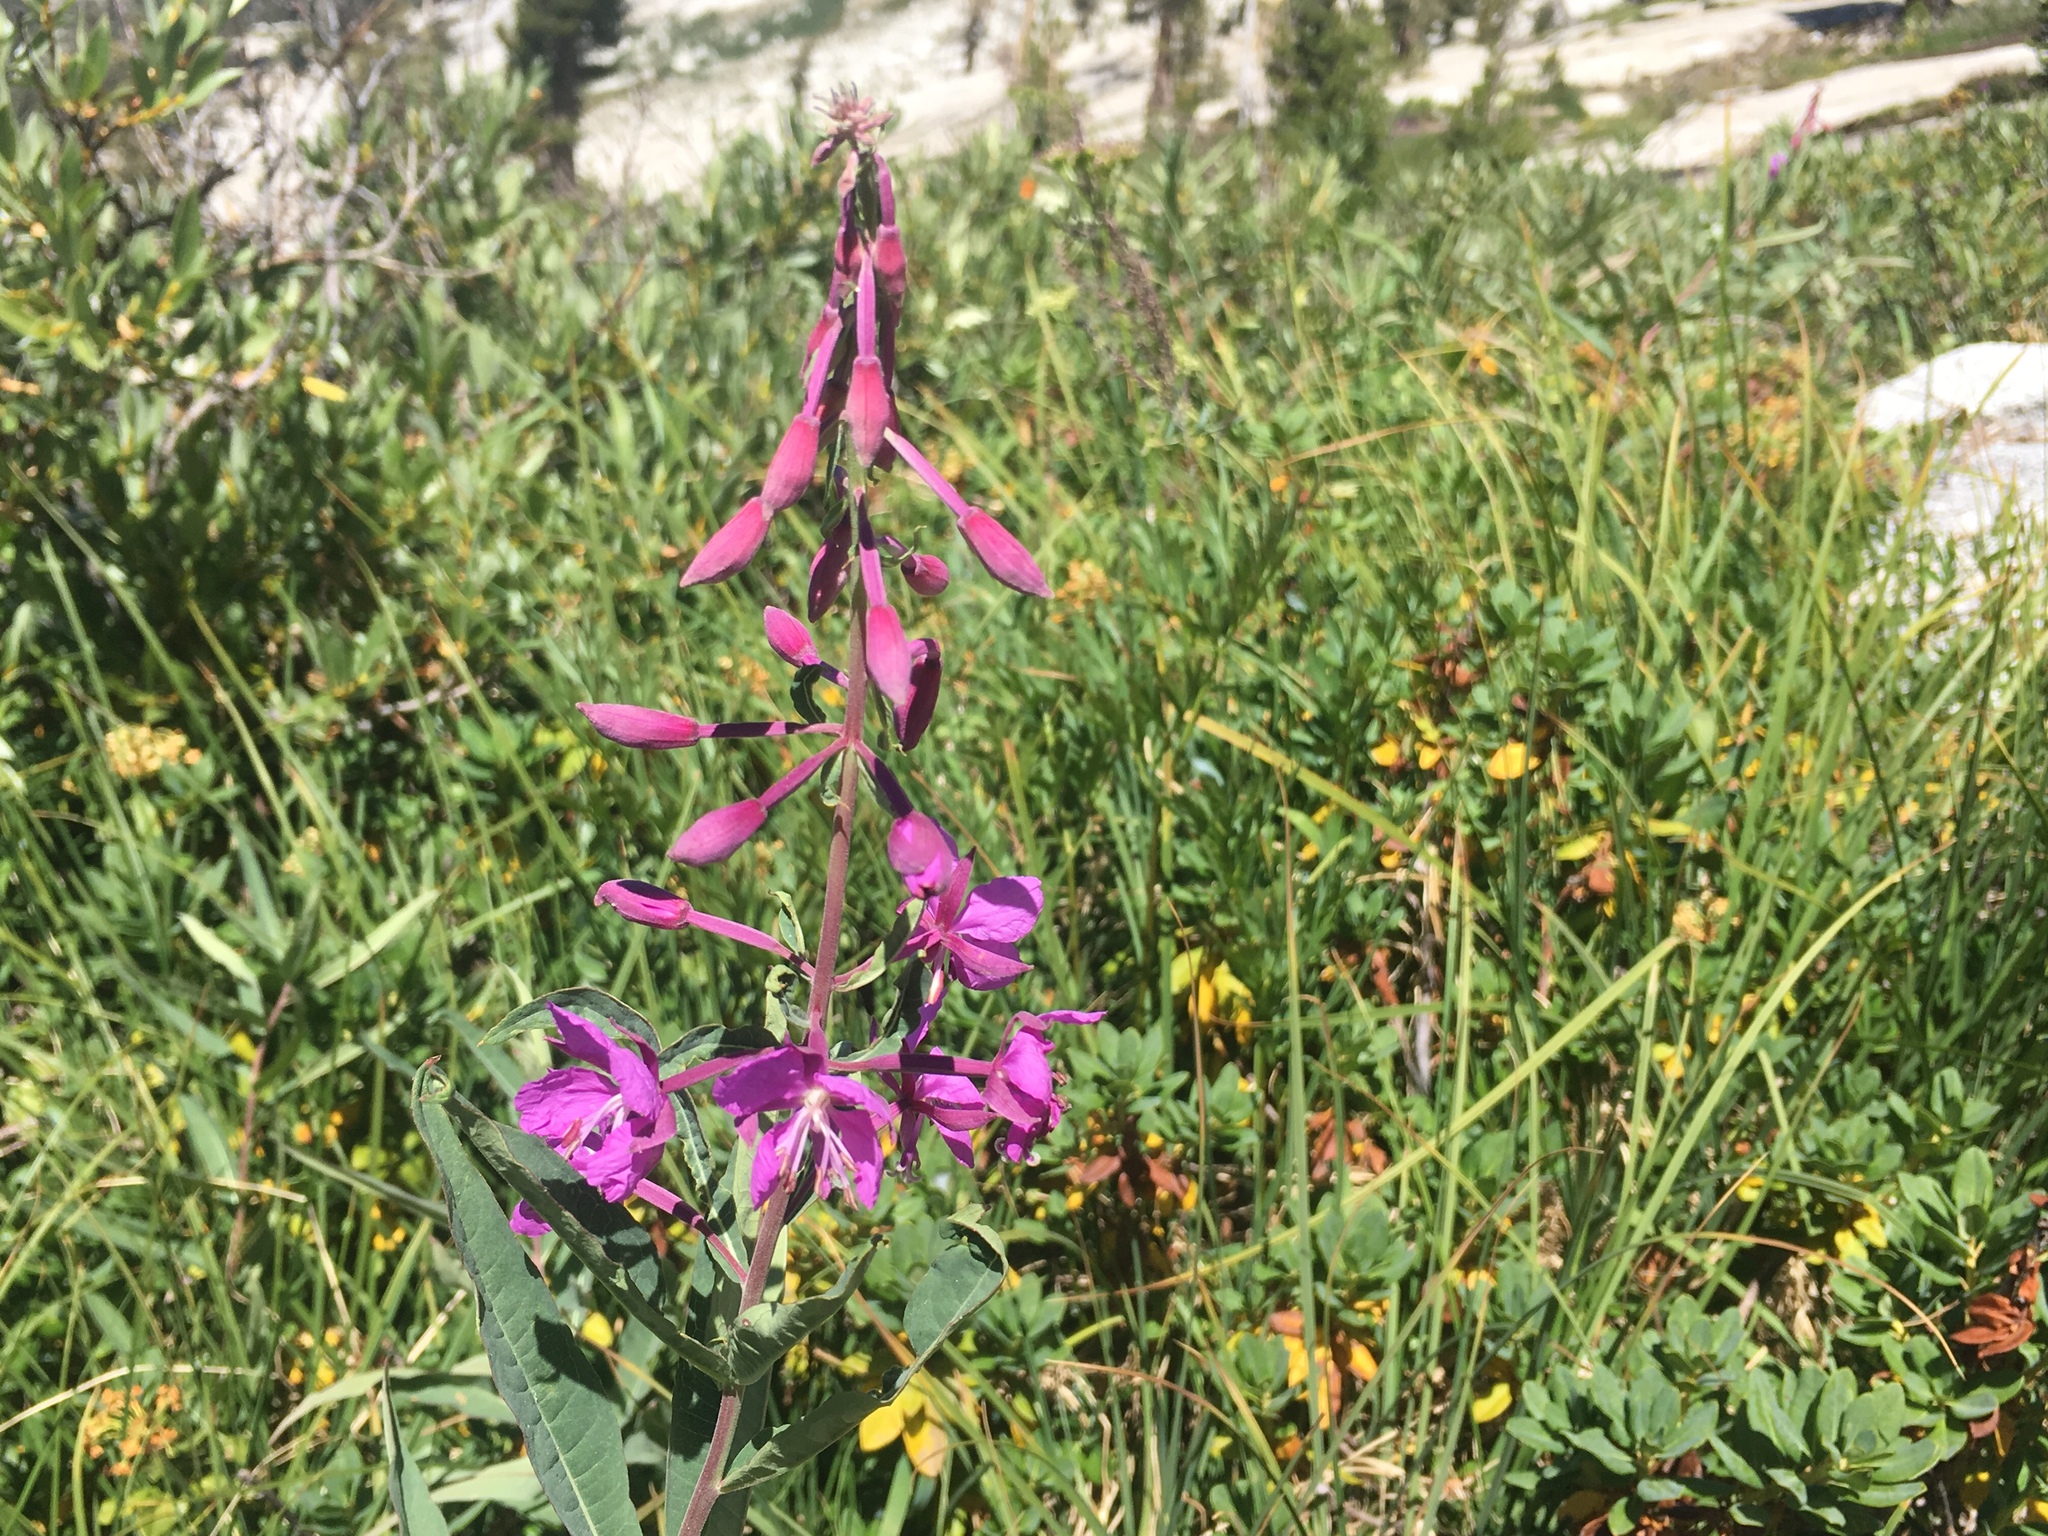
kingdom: Plantae
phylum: Tracheophyta
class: Magnoliopsida
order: Myrtales
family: Onagraceae
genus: Chamaenerion
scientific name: Chamaenerion angustifolium
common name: Fireweed
